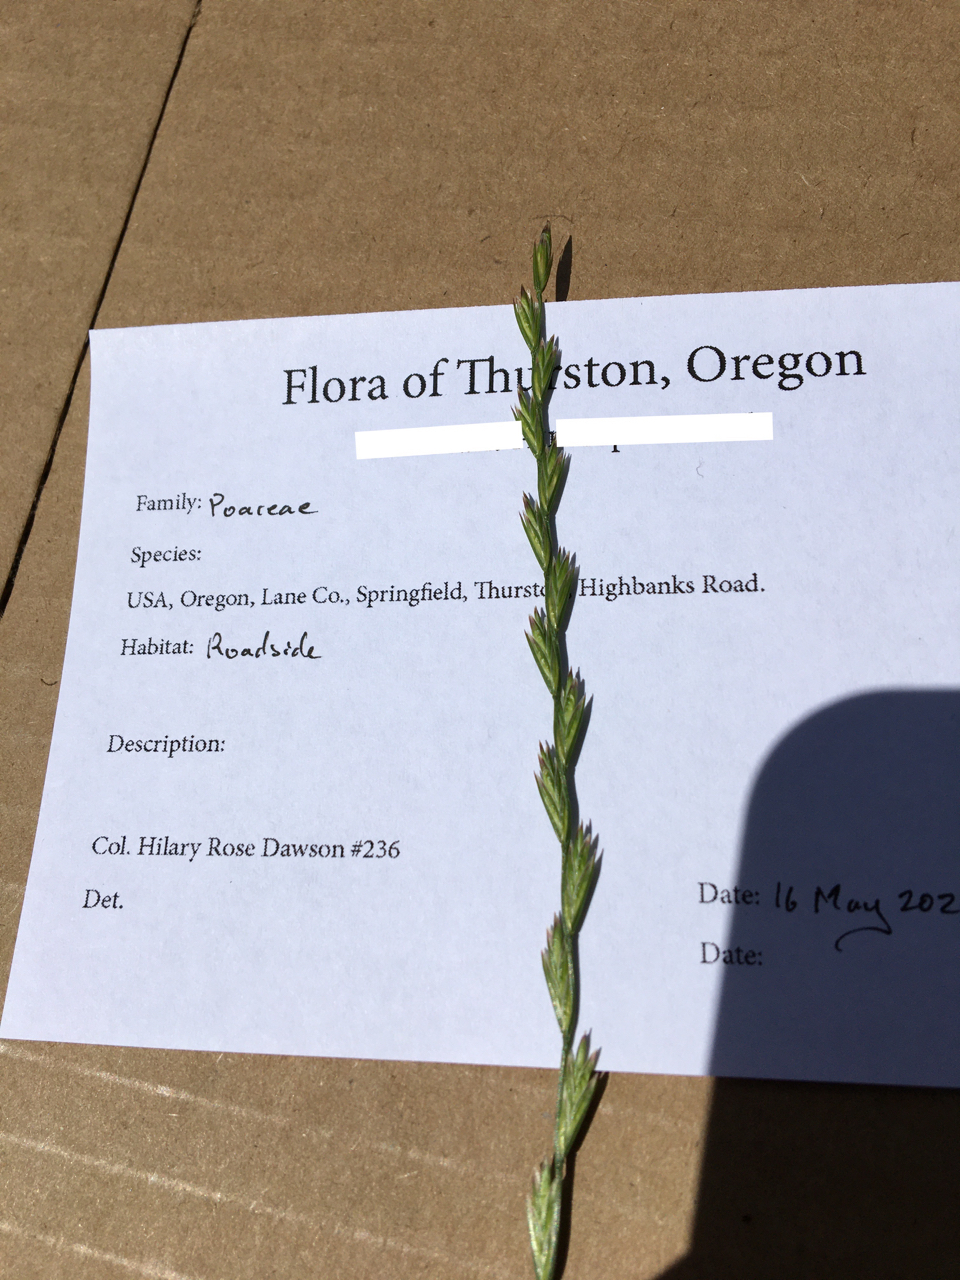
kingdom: Plantae
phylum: Tracheophyta
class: Liliopsida
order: Poales
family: Poaceae
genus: Lolium
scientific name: Lolium perenne
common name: Perennial ryegrass
